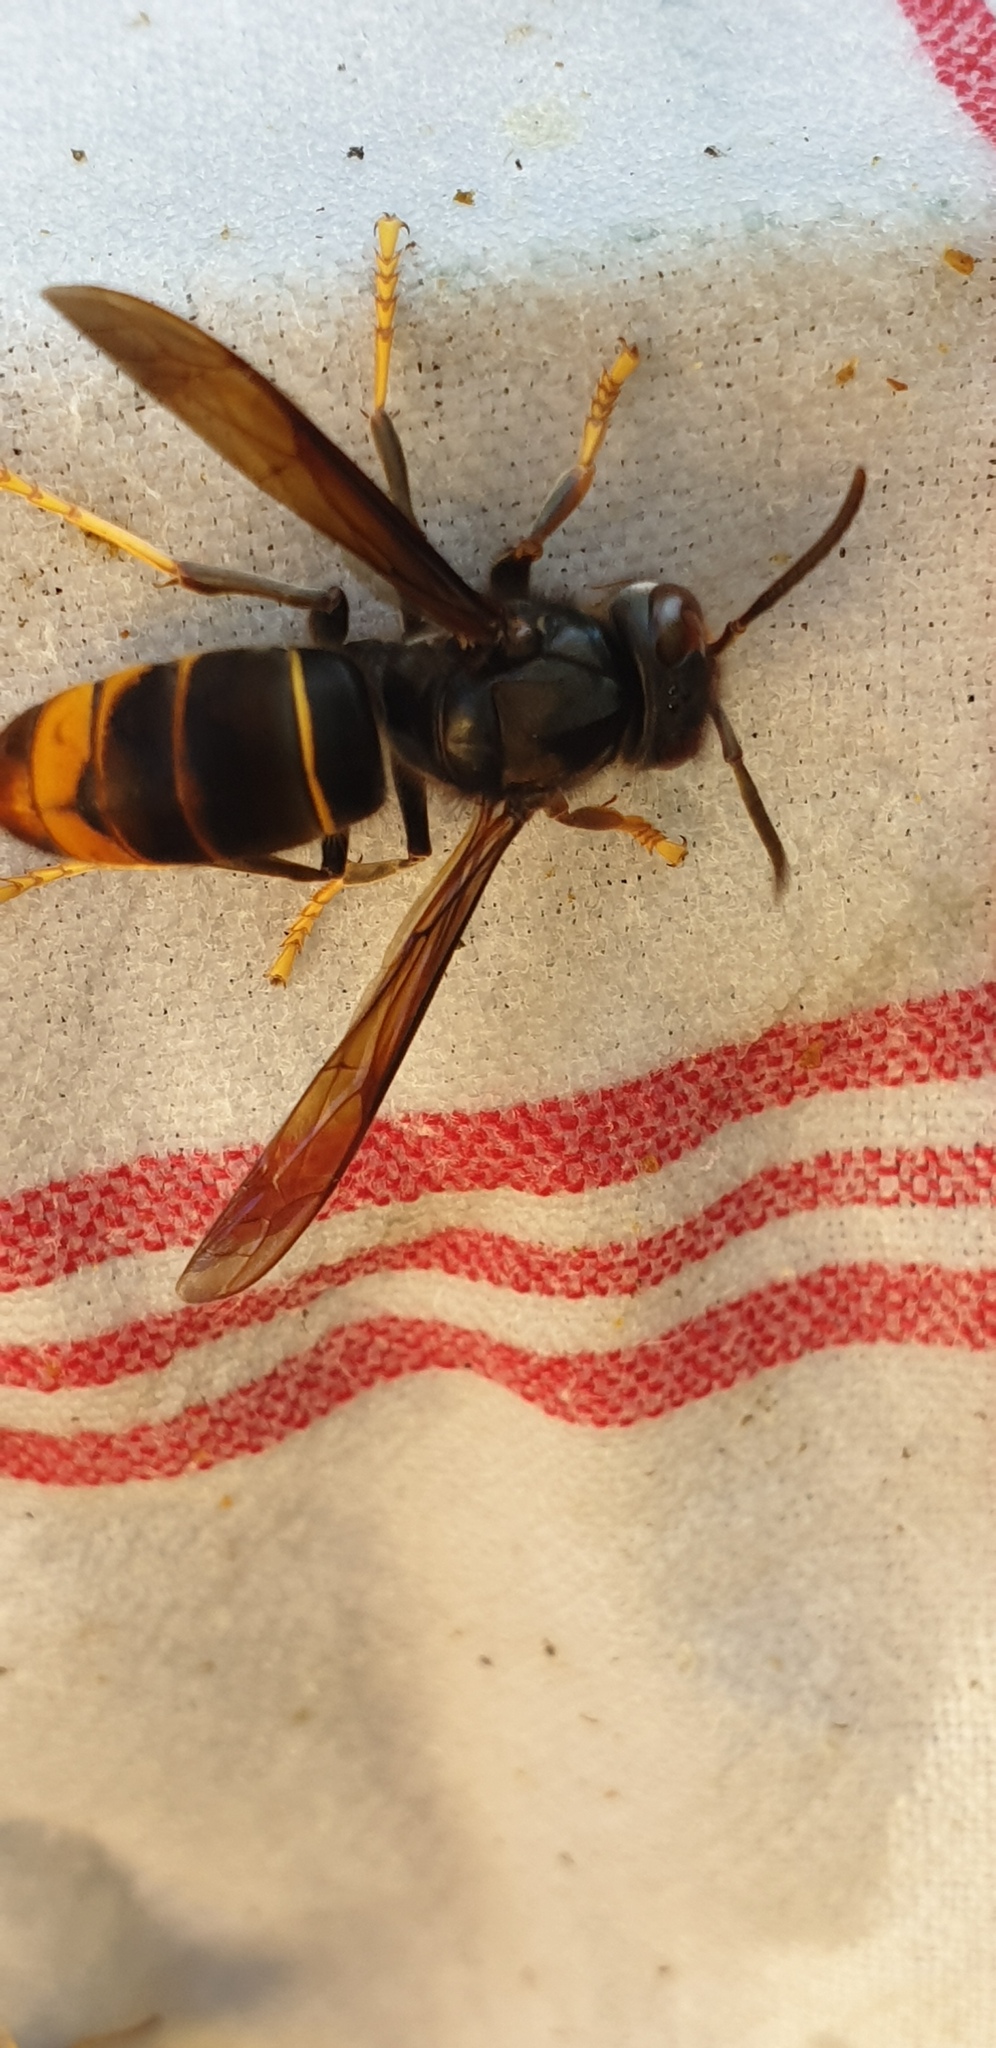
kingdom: Animalia
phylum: Arthropoda
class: Insecta
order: Hymenoptera
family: Vespidae
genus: Vespa
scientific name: Vespa velutina
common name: Asian hornet
